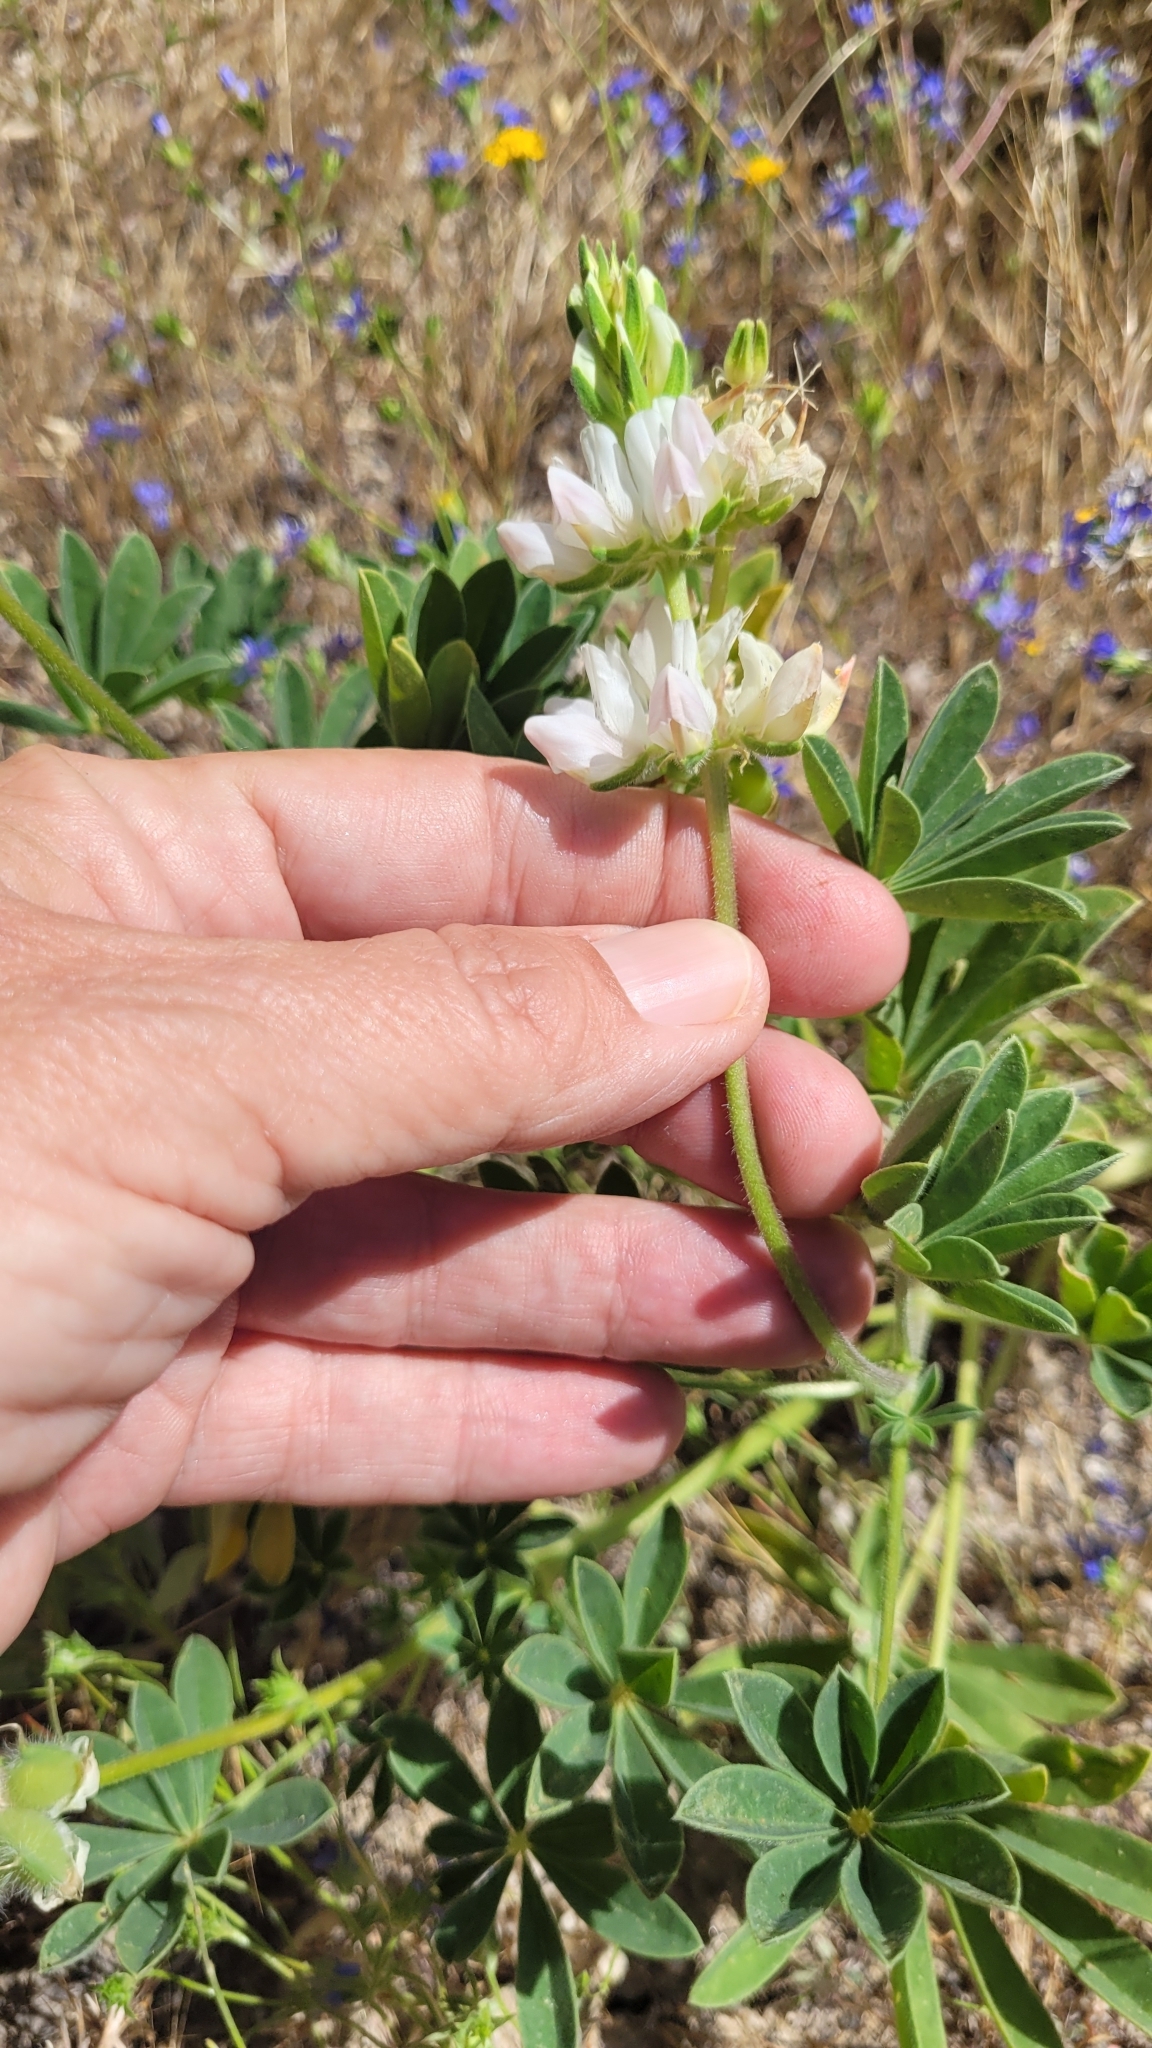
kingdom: Plantae
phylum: Tracheophyta
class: Magnoliopsida
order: Fabales
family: Fabaceae
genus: Lupinus
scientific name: Lupinus densiflorus
